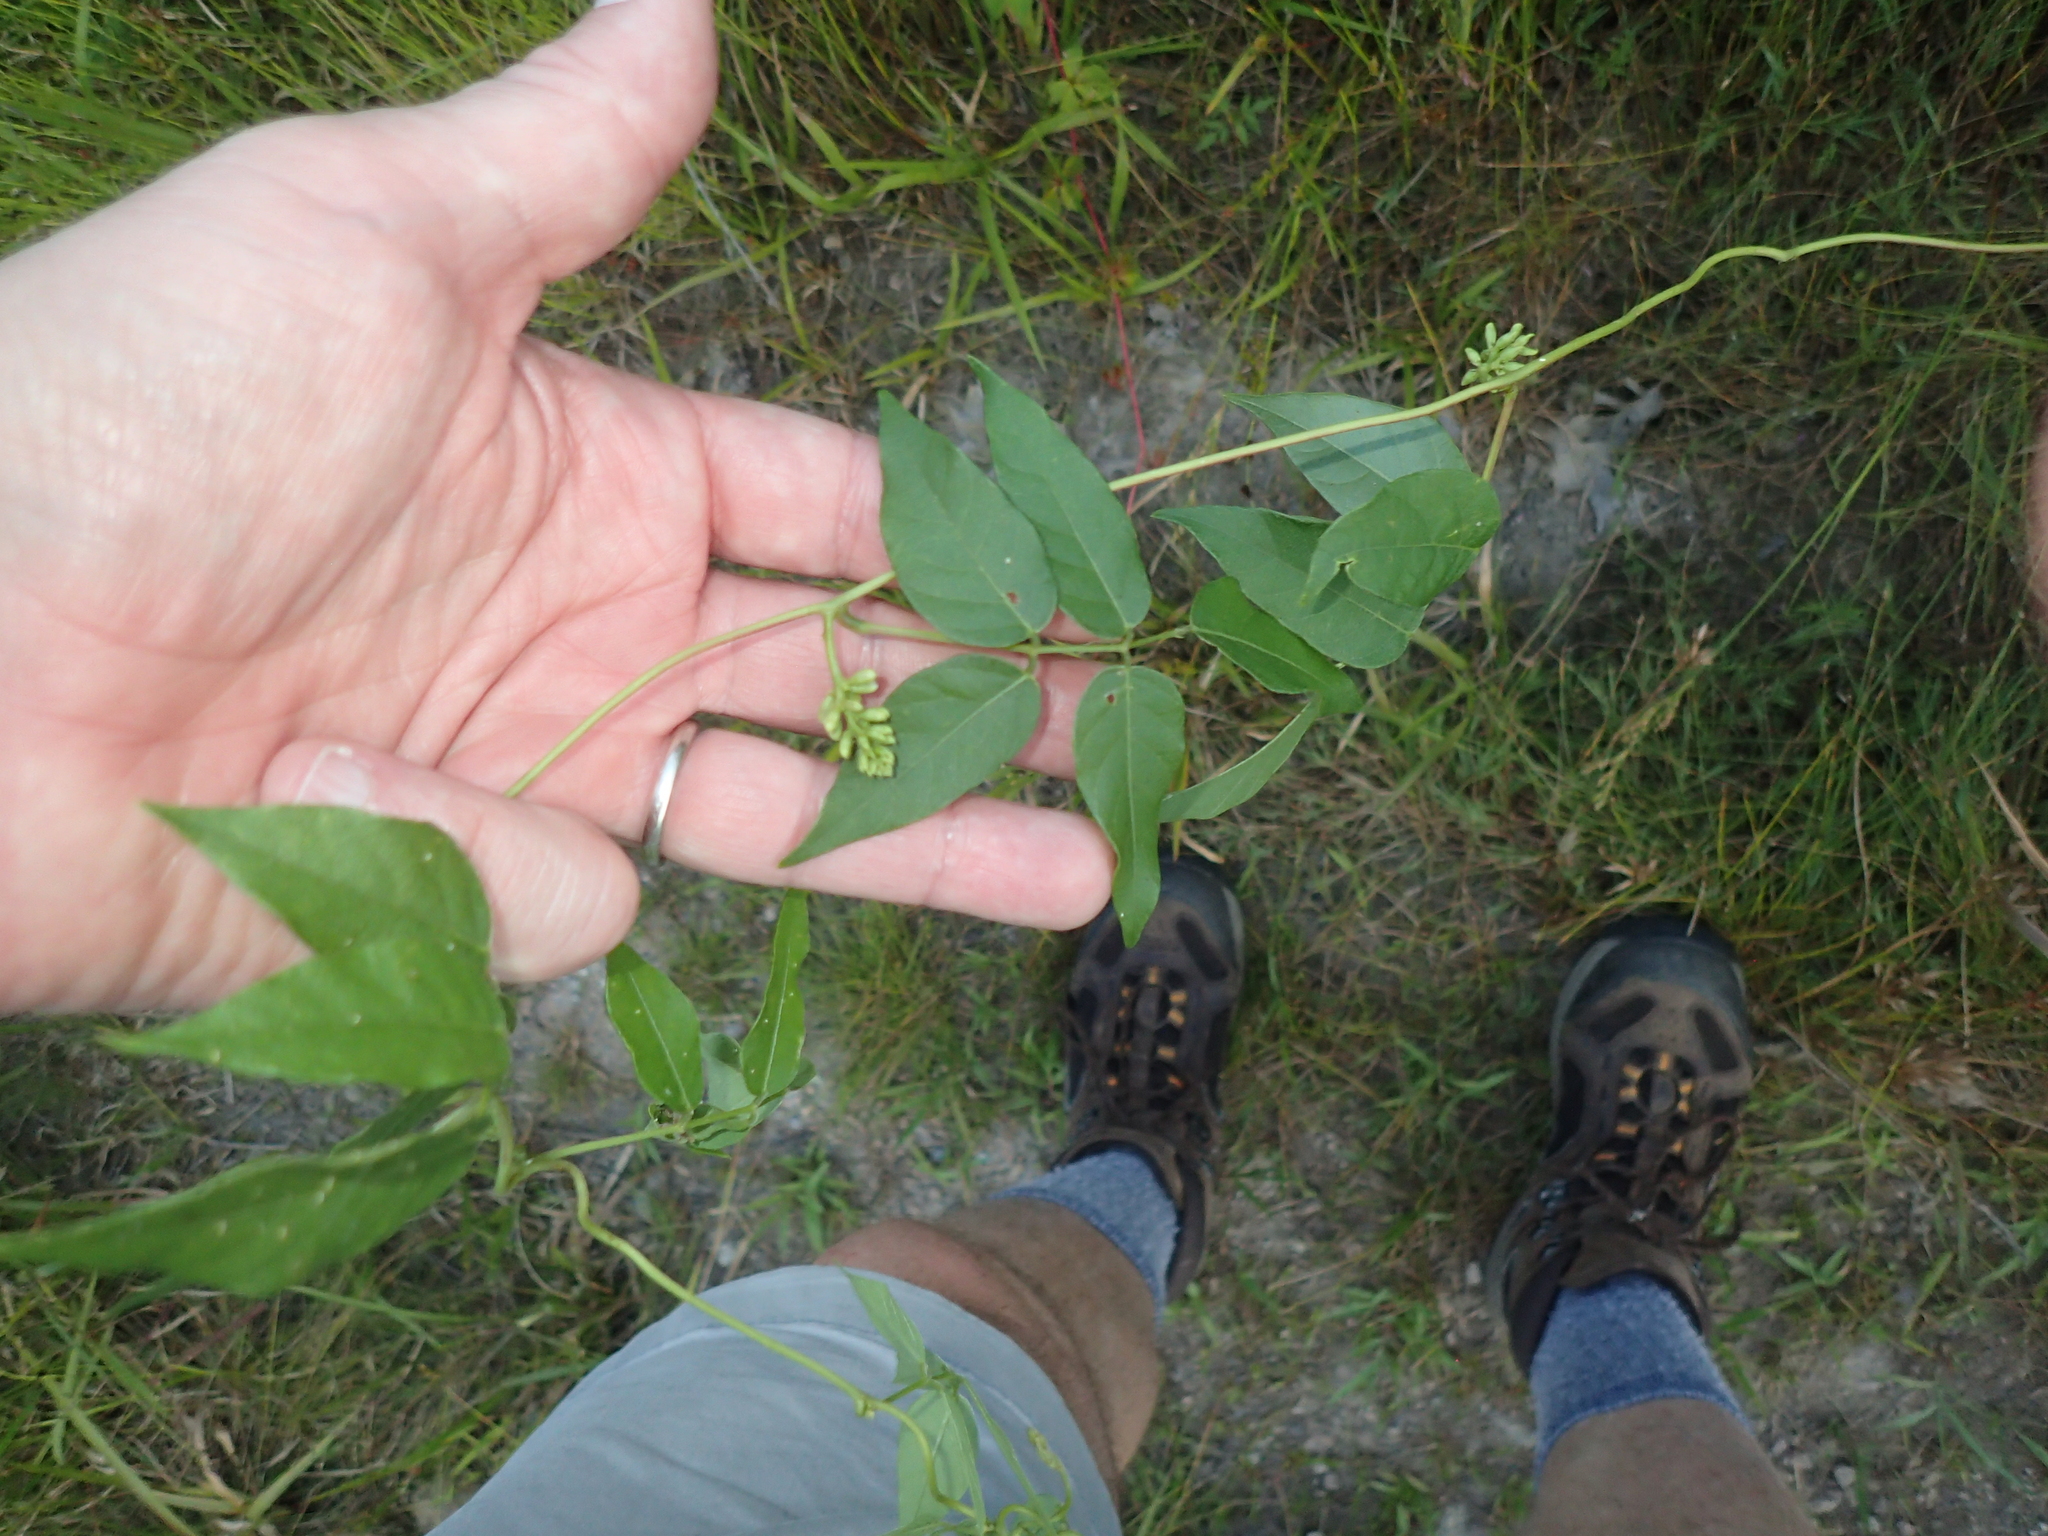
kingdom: Plantae
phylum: Tracheophyta
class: Magnoliopsida
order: Fabales
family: Fabaceae
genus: Apios
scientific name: Apios americana
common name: American potato-bean
